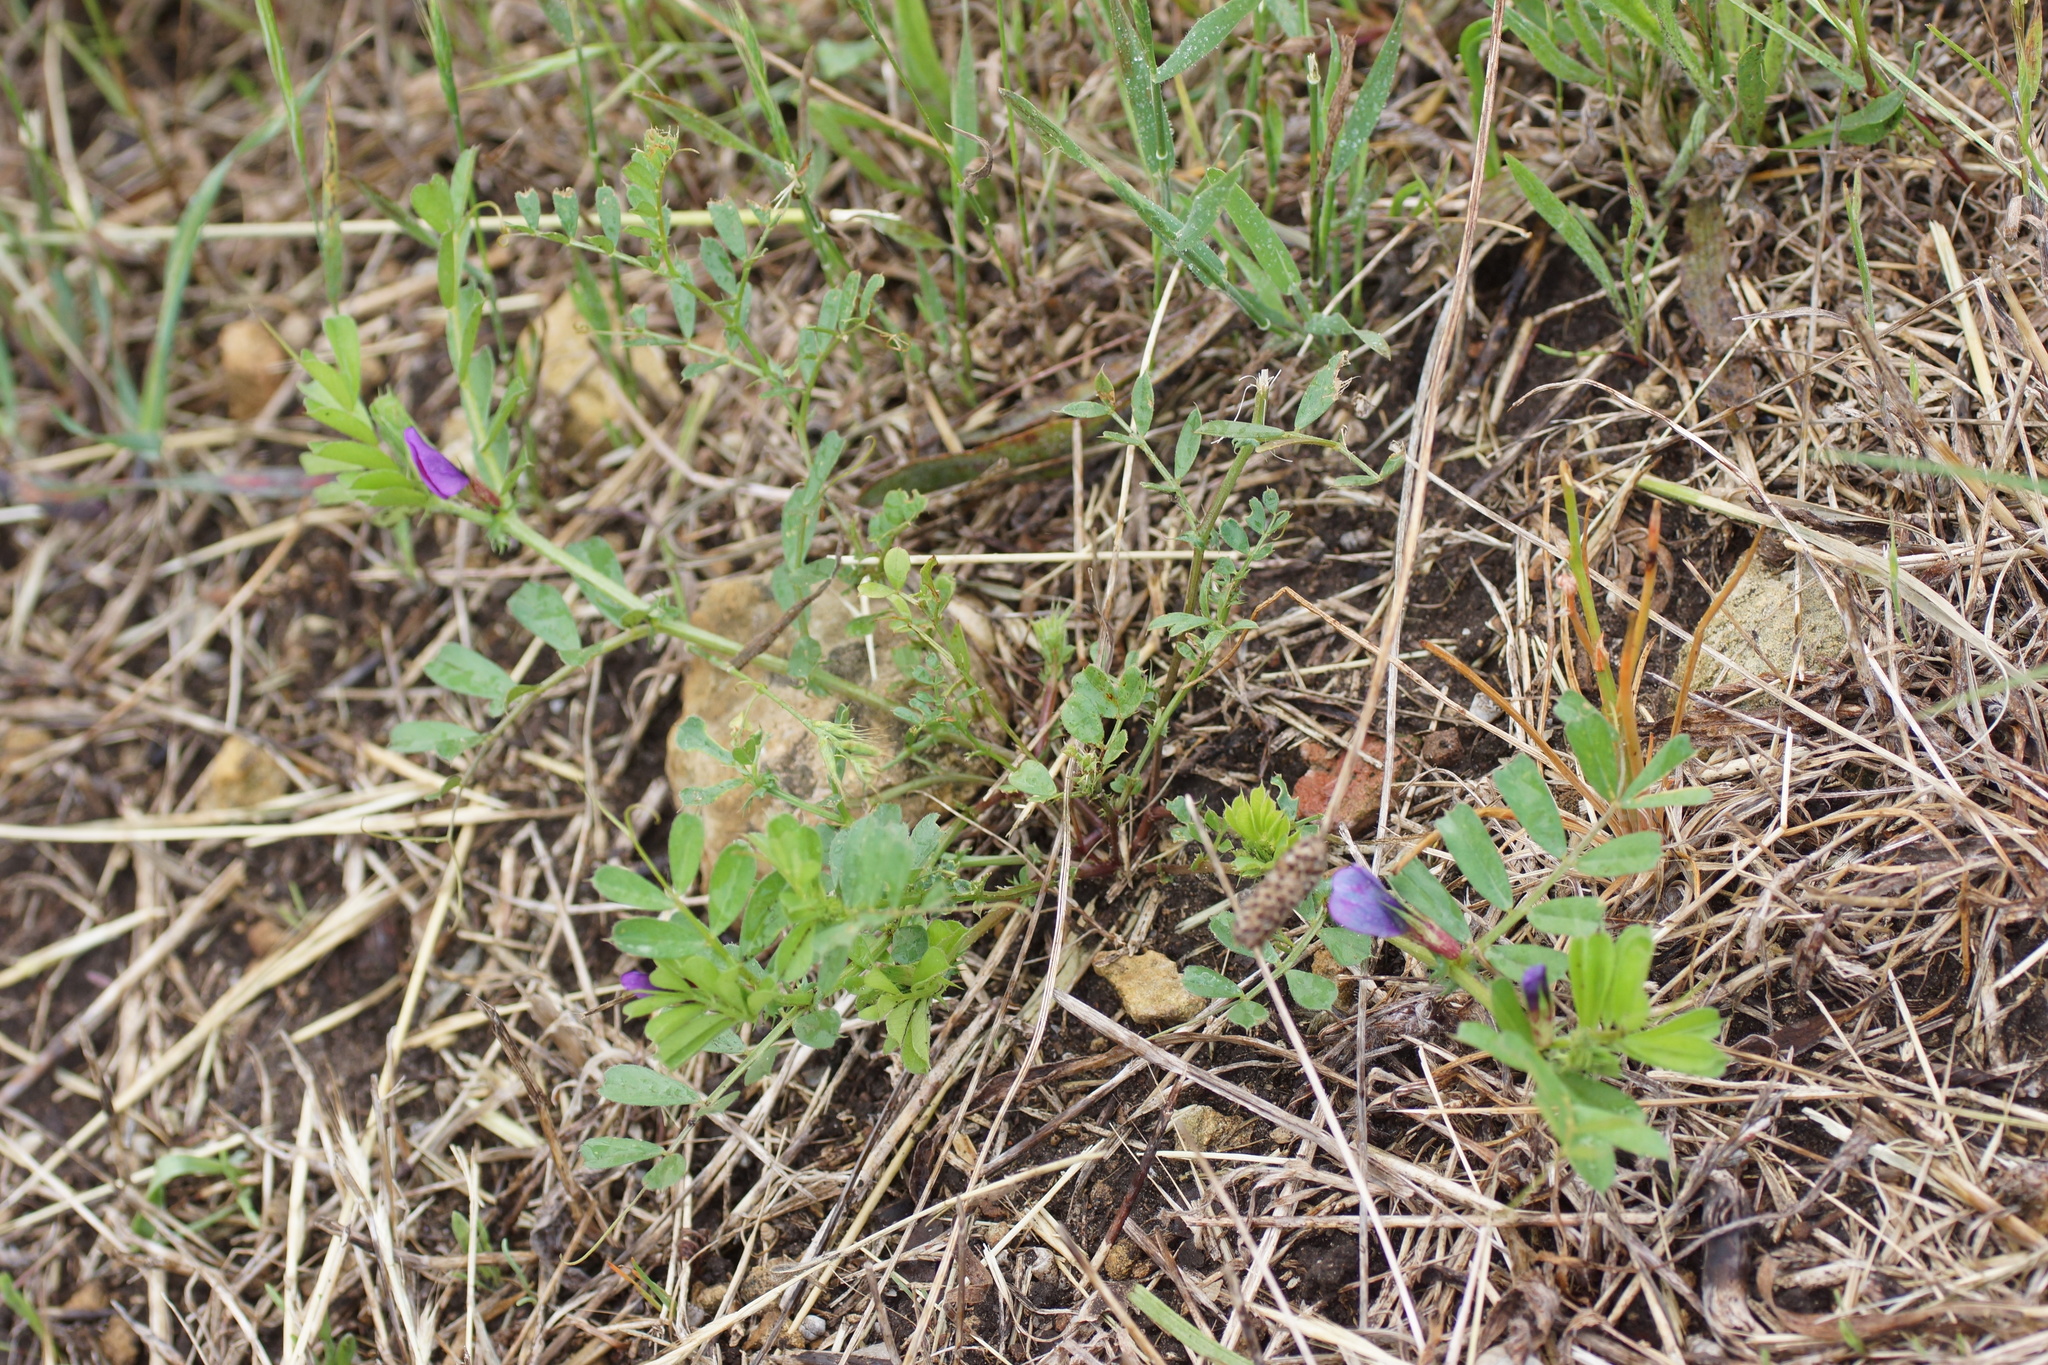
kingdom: Plantae
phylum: Tracheophyta
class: Magnoliopsida
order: Fabales
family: Fabaceae
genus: Vicia
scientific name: Vicia sativa
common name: Garden vetch
